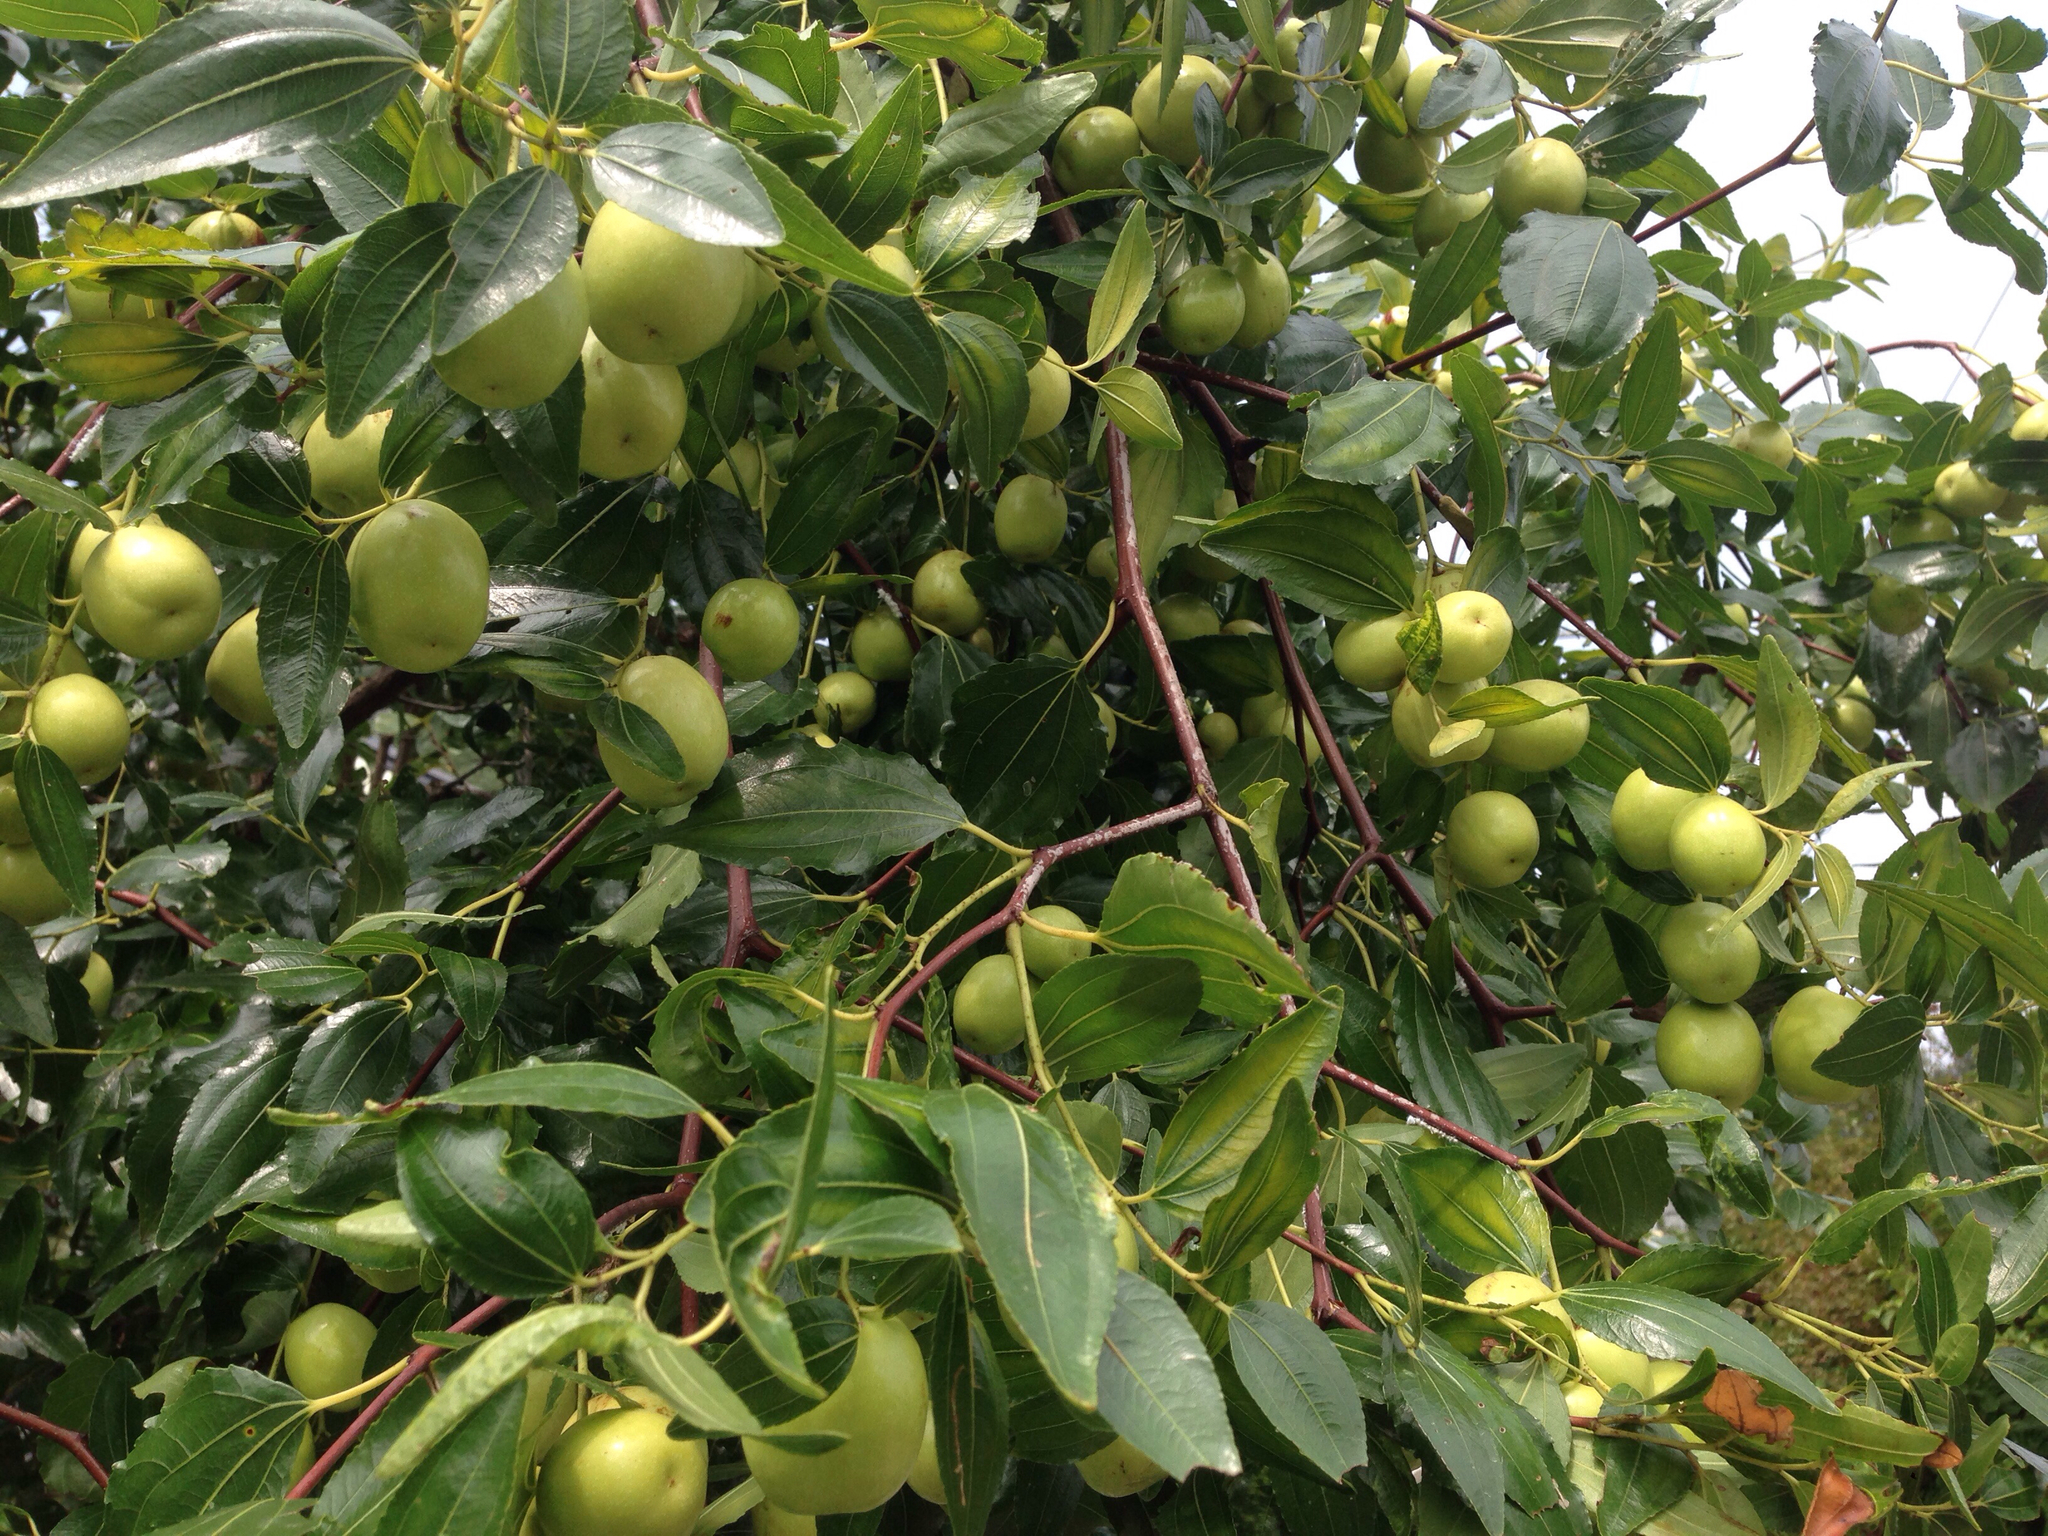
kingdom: Plantae
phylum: Tracheophyta
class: Magnoliopsida
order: Rosales
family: Rhamnaceae
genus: Ziziphus
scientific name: Ziziphus jujuba
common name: Jujube red date
